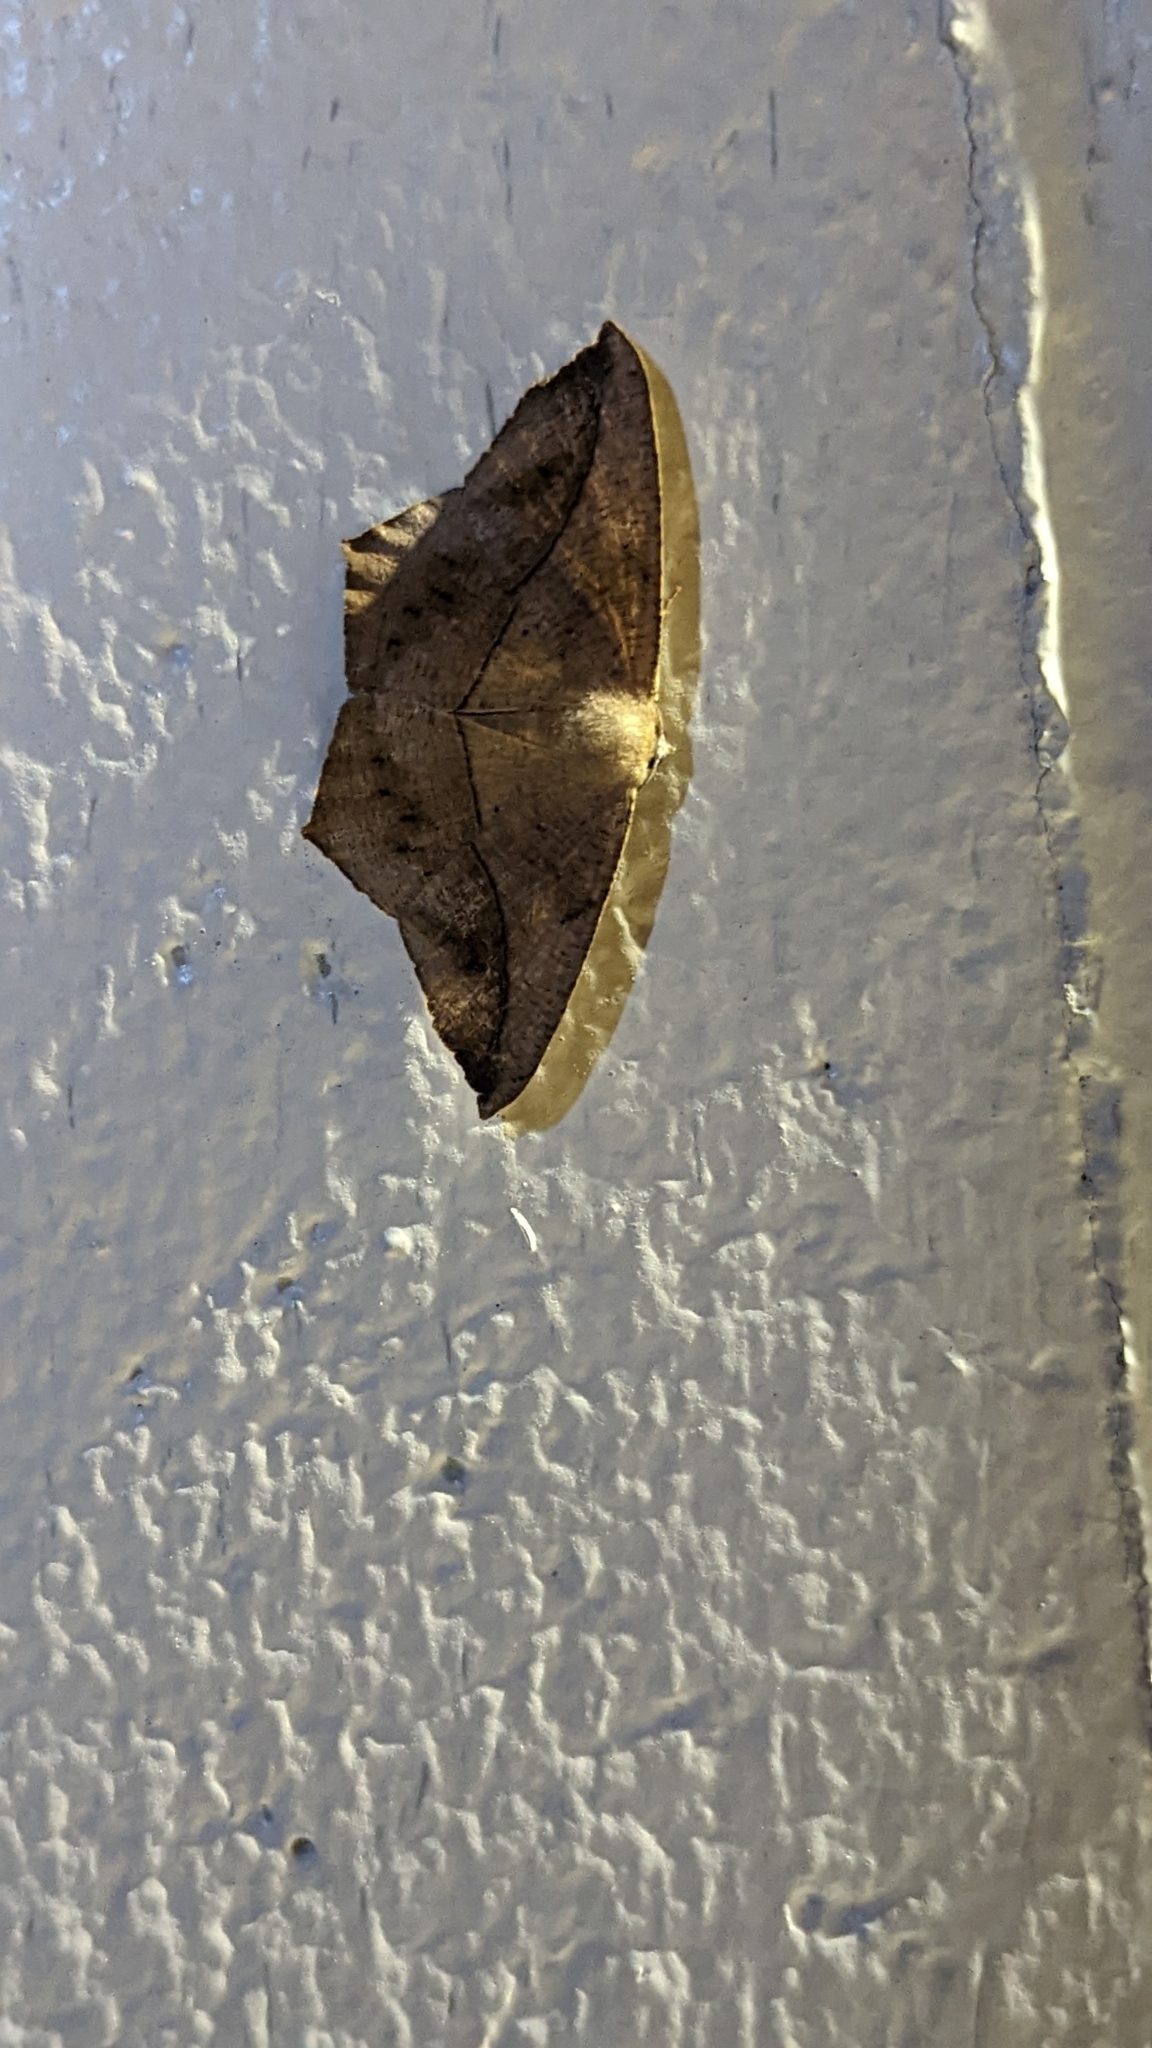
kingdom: Animalia
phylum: Arthropoda
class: Insecta
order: Lepidoptera
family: Geometridae
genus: Prochoerodes
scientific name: Prochoerodes lineola
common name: Large maple spanworm
